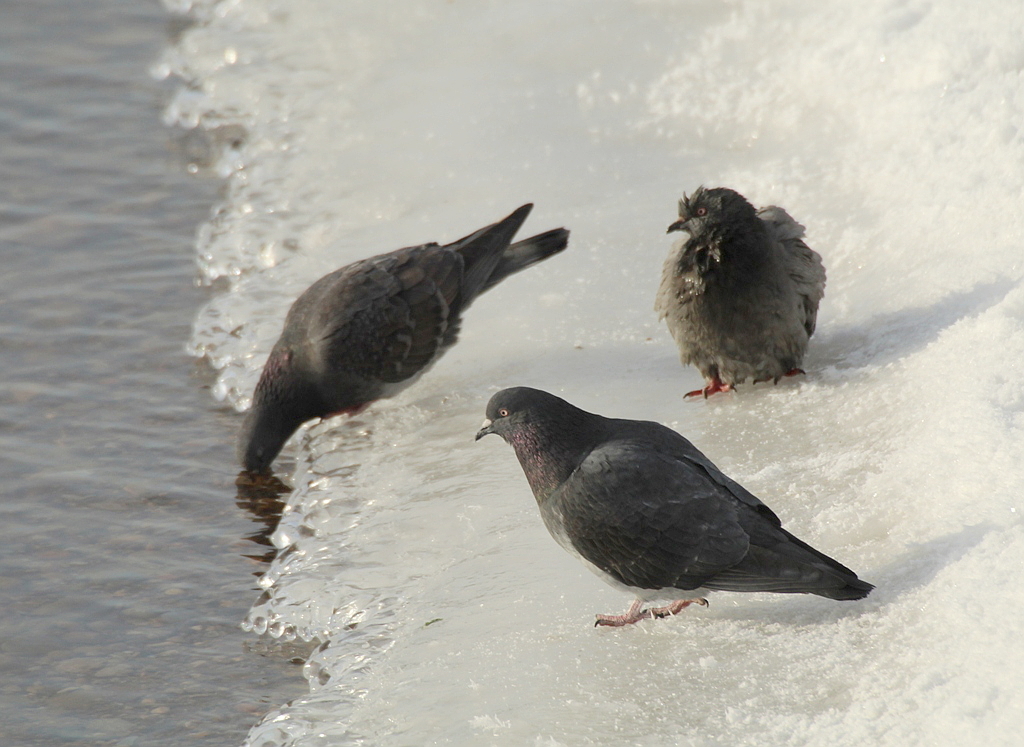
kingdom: Animalia
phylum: Chordata
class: Aves
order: Columbiformes
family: Columbidae
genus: Columba
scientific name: Columba livia
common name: Rock pigeon
